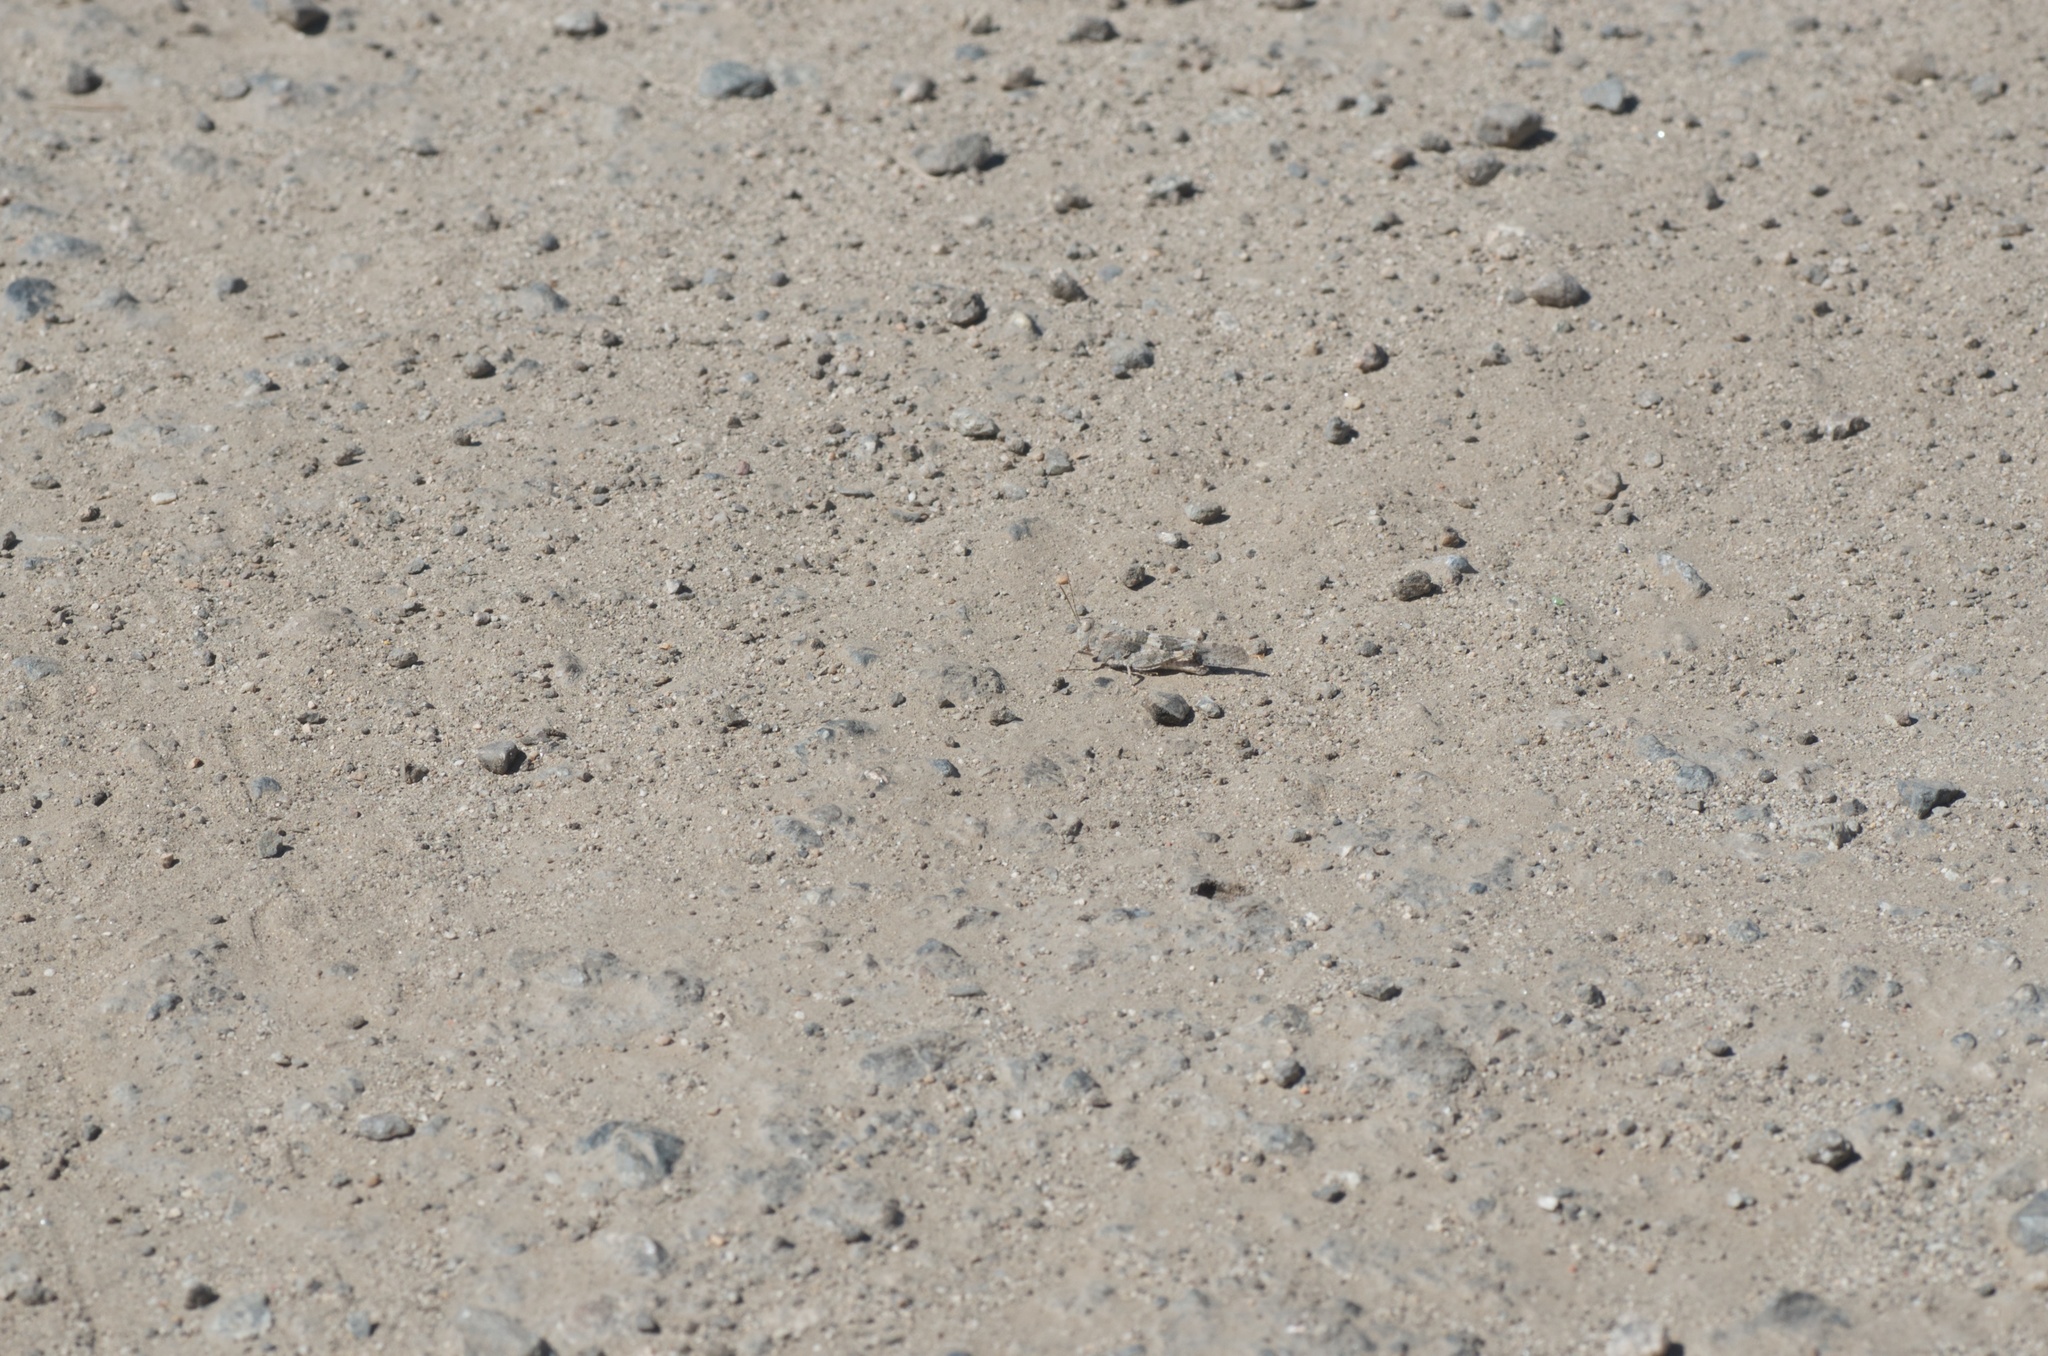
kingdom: Animalia
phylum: Arthropoda
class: Insecta
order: Orthoptera
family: Acrididae
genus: Trimerotropis
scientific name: Trimerotropis pallidipennis
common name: Pallid-winged grasshopper
